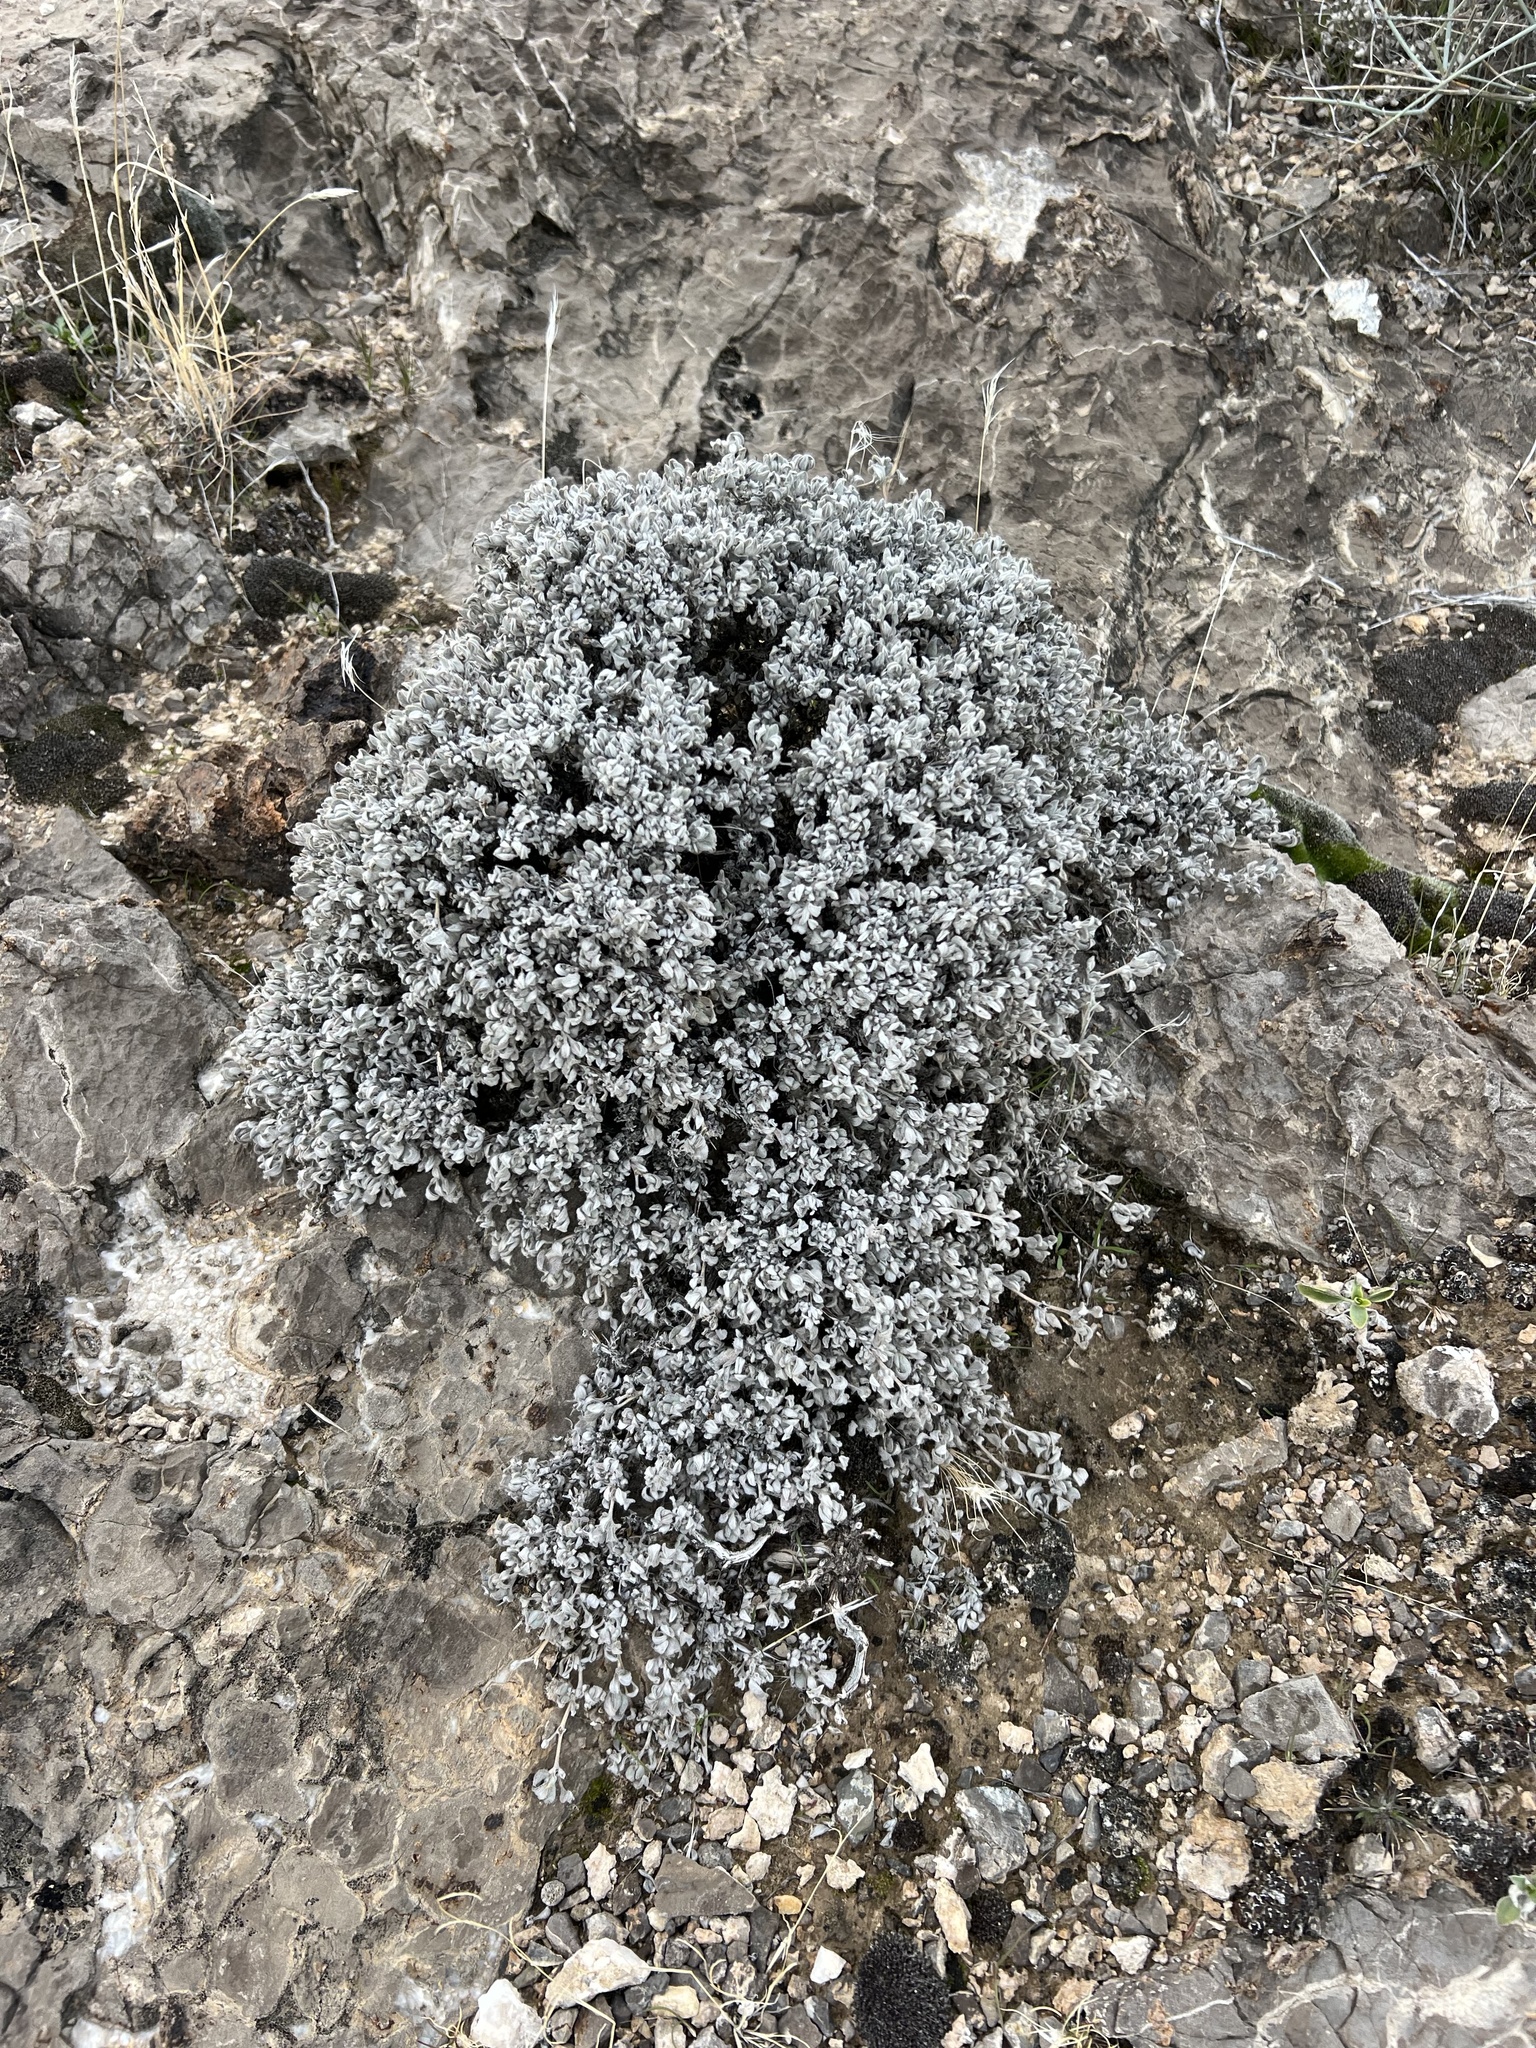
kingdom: Plantae
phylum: Tracheophyta
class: Magnoliopsida
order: Boraginales
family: Ehretiaceae
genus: Tiquilia
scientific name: Tiquilia canescens
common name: Hairy tiquilia
